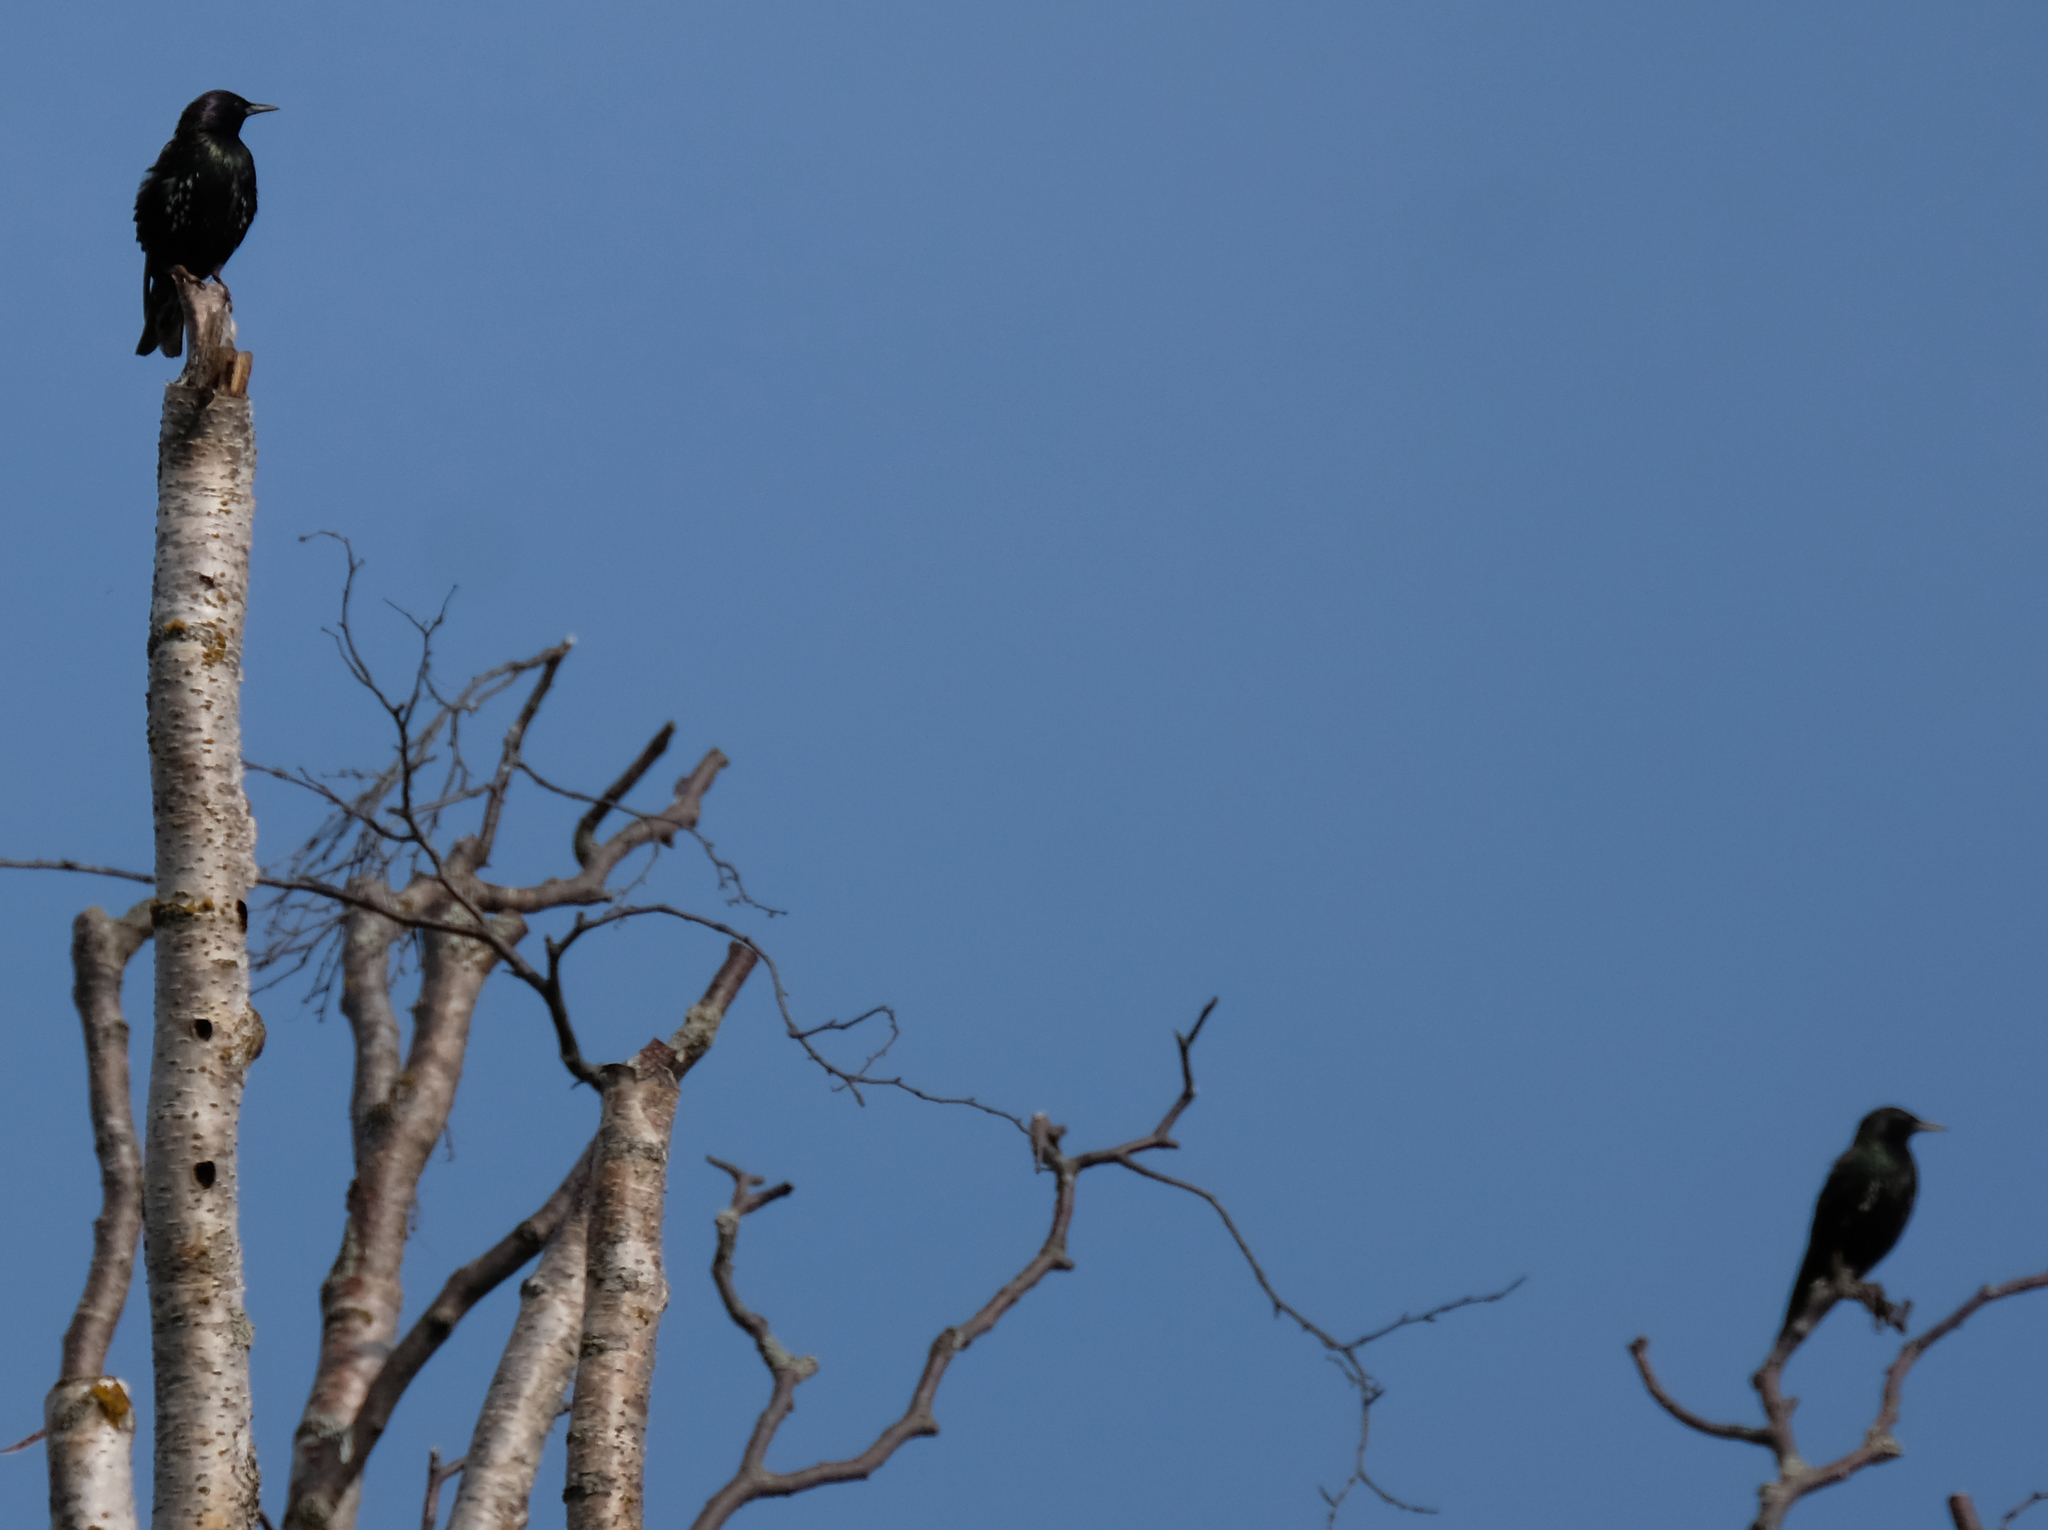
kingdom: Animalia
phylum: Chordata
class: Aves
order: Passeriformes
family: Sturnidae
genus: Sturnus
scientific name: Sturnus vulgaris
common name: Common starling
